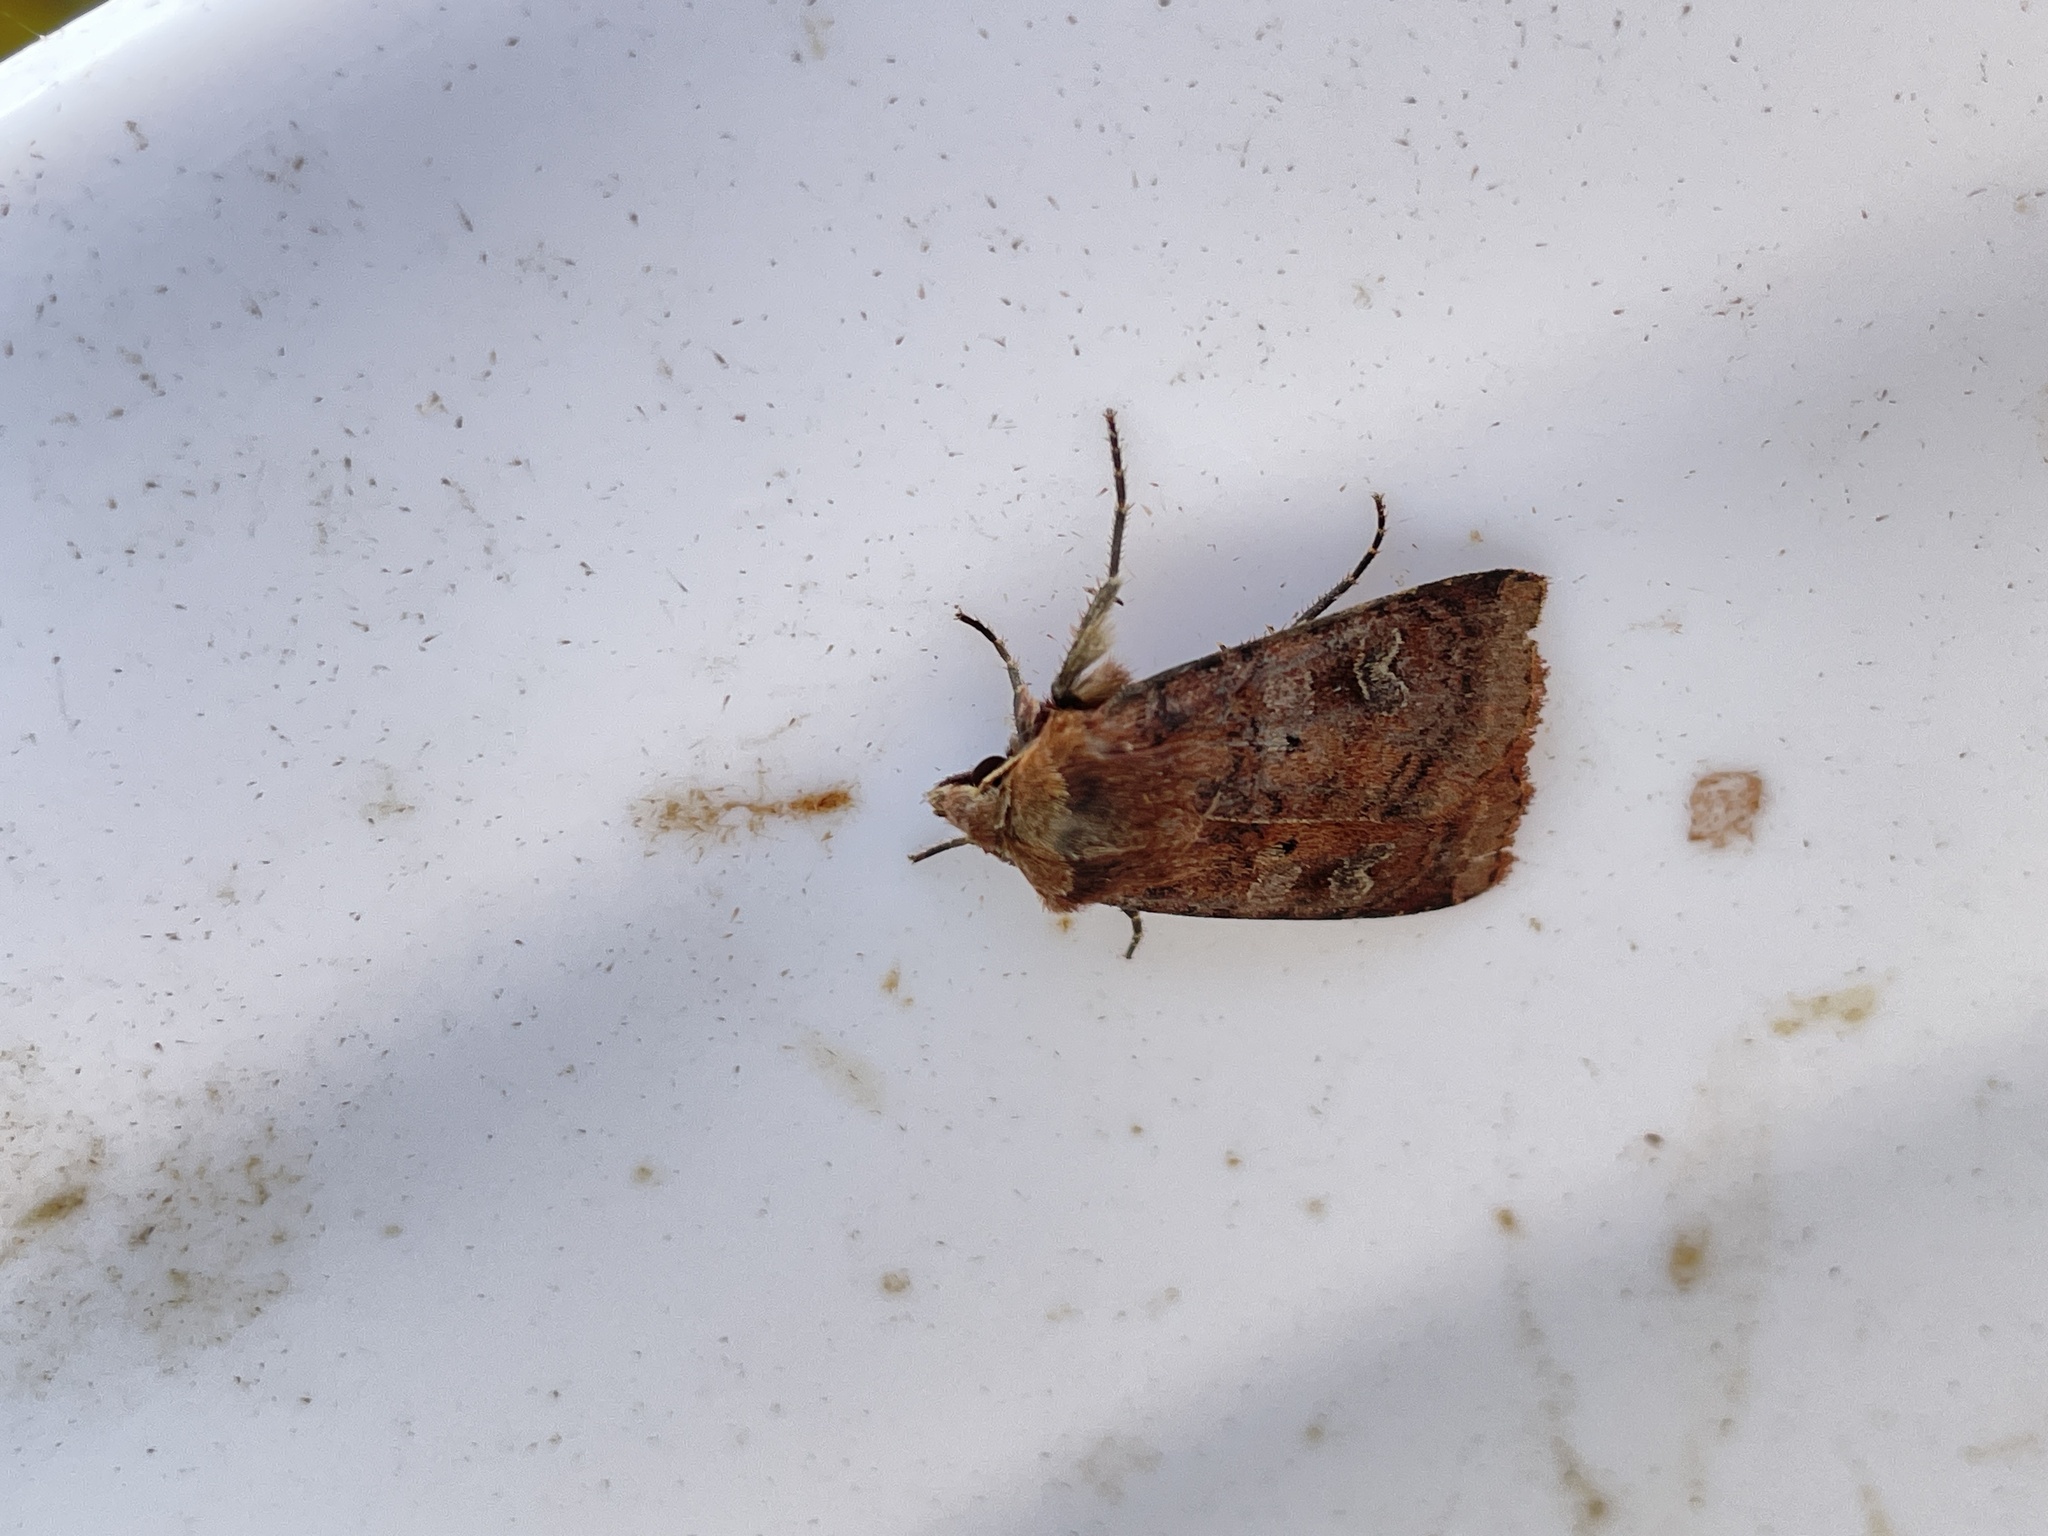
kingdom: Animalia
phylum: Arthropoda
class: Insecta
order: Lepidoptera
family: Noctuidae
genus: Diarsia
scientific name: Diarsia rubi
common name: Small square-spot
